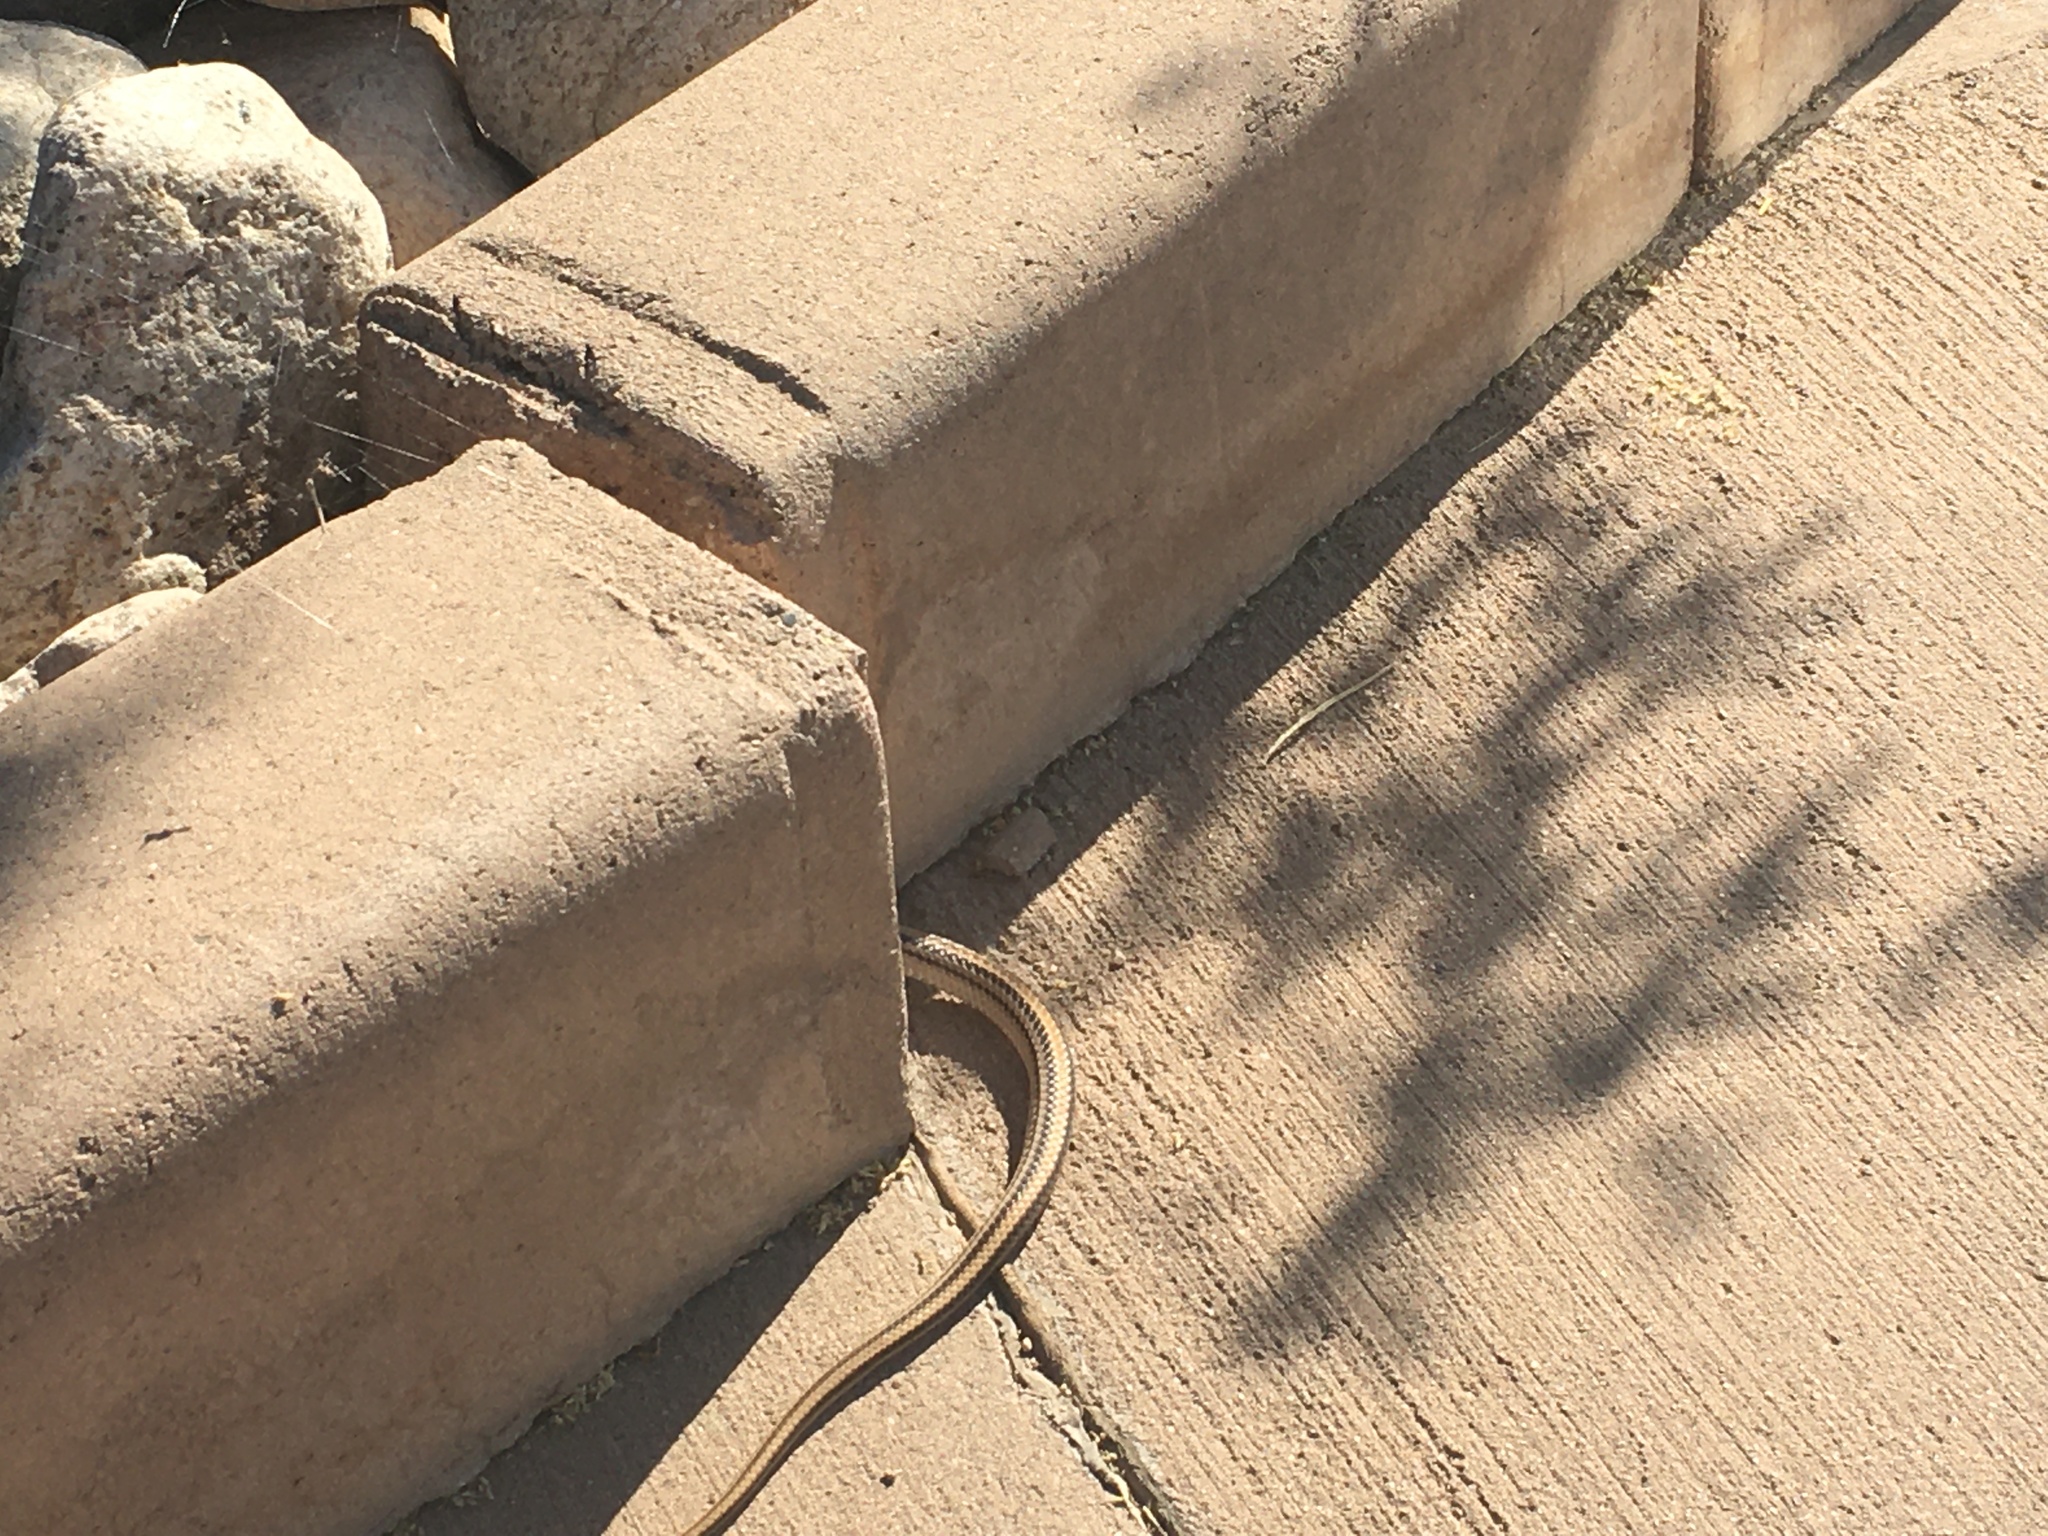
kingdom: Animalia
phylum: Chordata
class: Squamata
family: Colubridae
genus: Salvadora
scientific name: Salvadora deserticola
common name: Big bend patchnose snake
